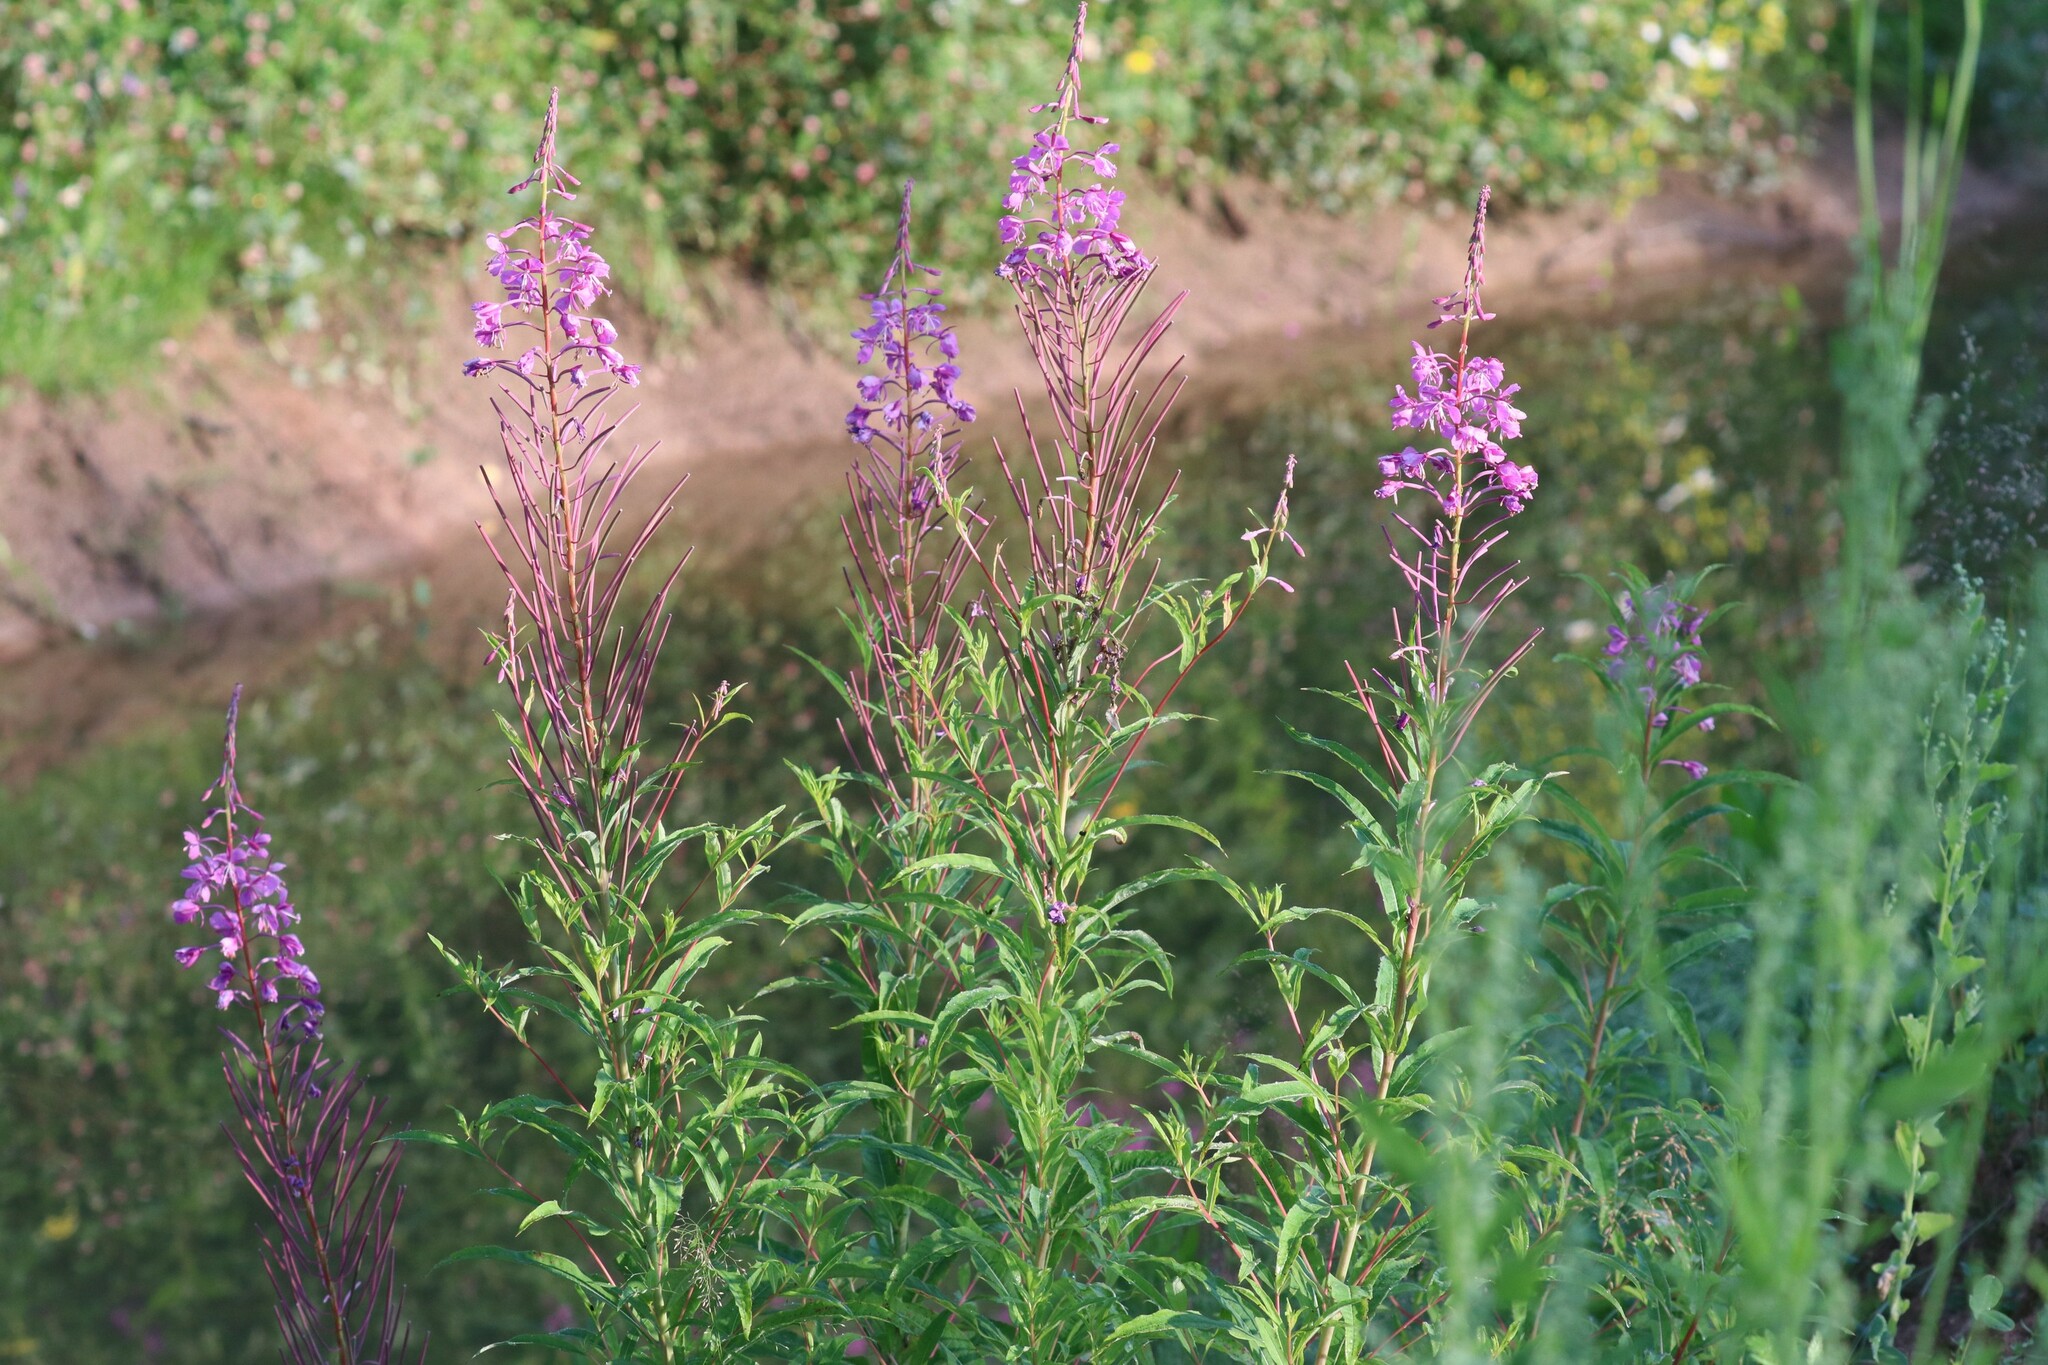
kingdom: Plantae
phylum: Tracheophyta
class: Magnoliopsida
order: Myrtales
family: Lythraceae
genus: Lythrum
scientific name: Lythrum salicaria
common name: Purple loosestrife
